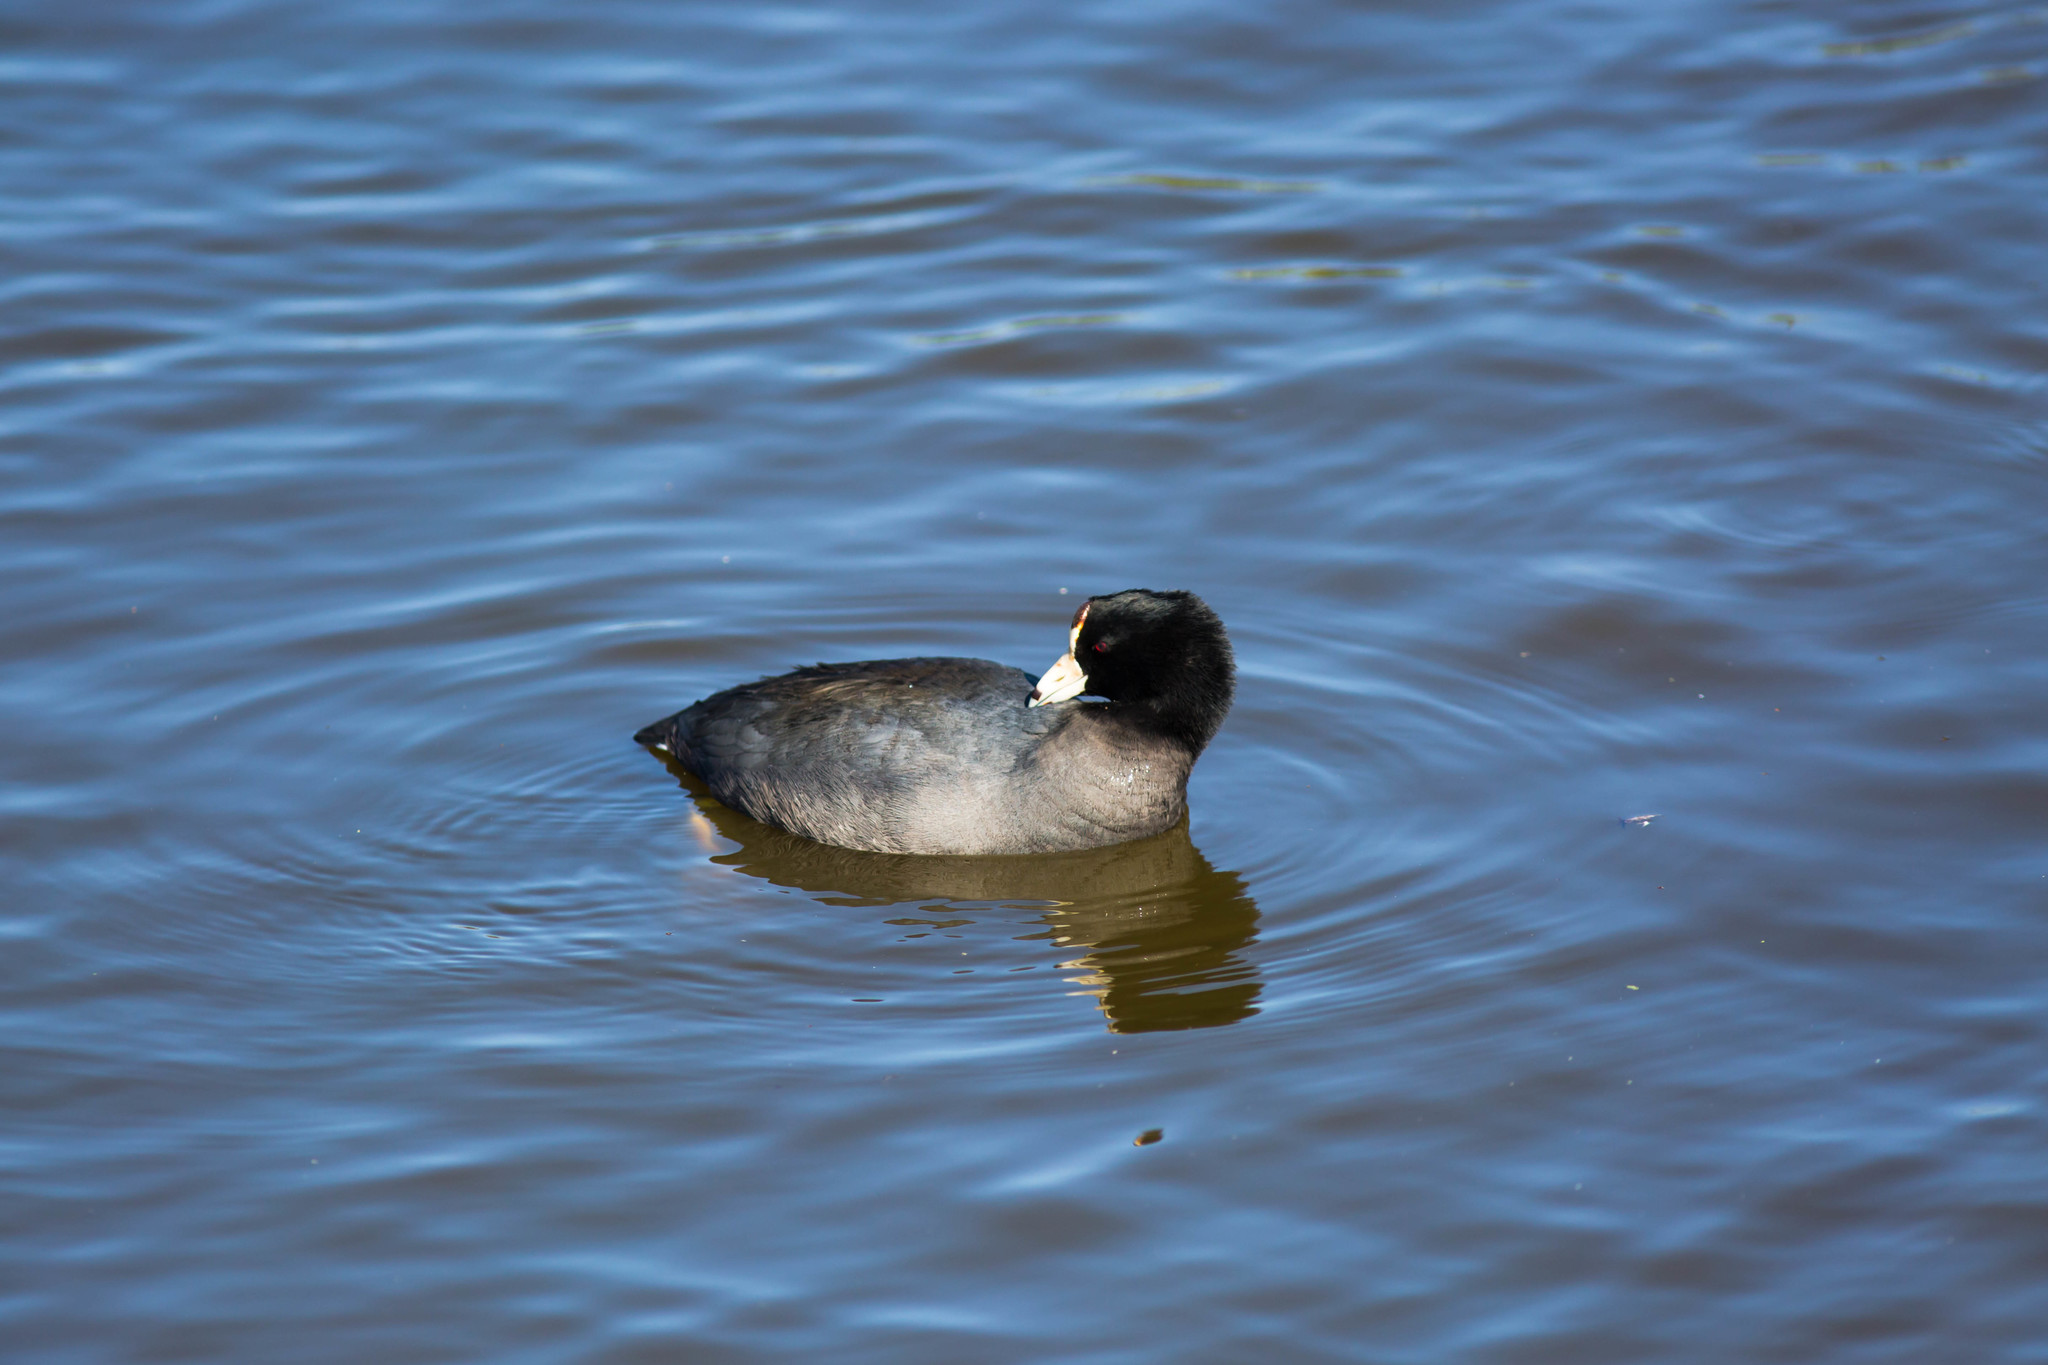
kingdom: Animalia
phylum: Chordata
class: Aves
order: Gruiformes
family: Rallidae
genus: Fulica
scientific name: Fulica americana
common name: American coot
